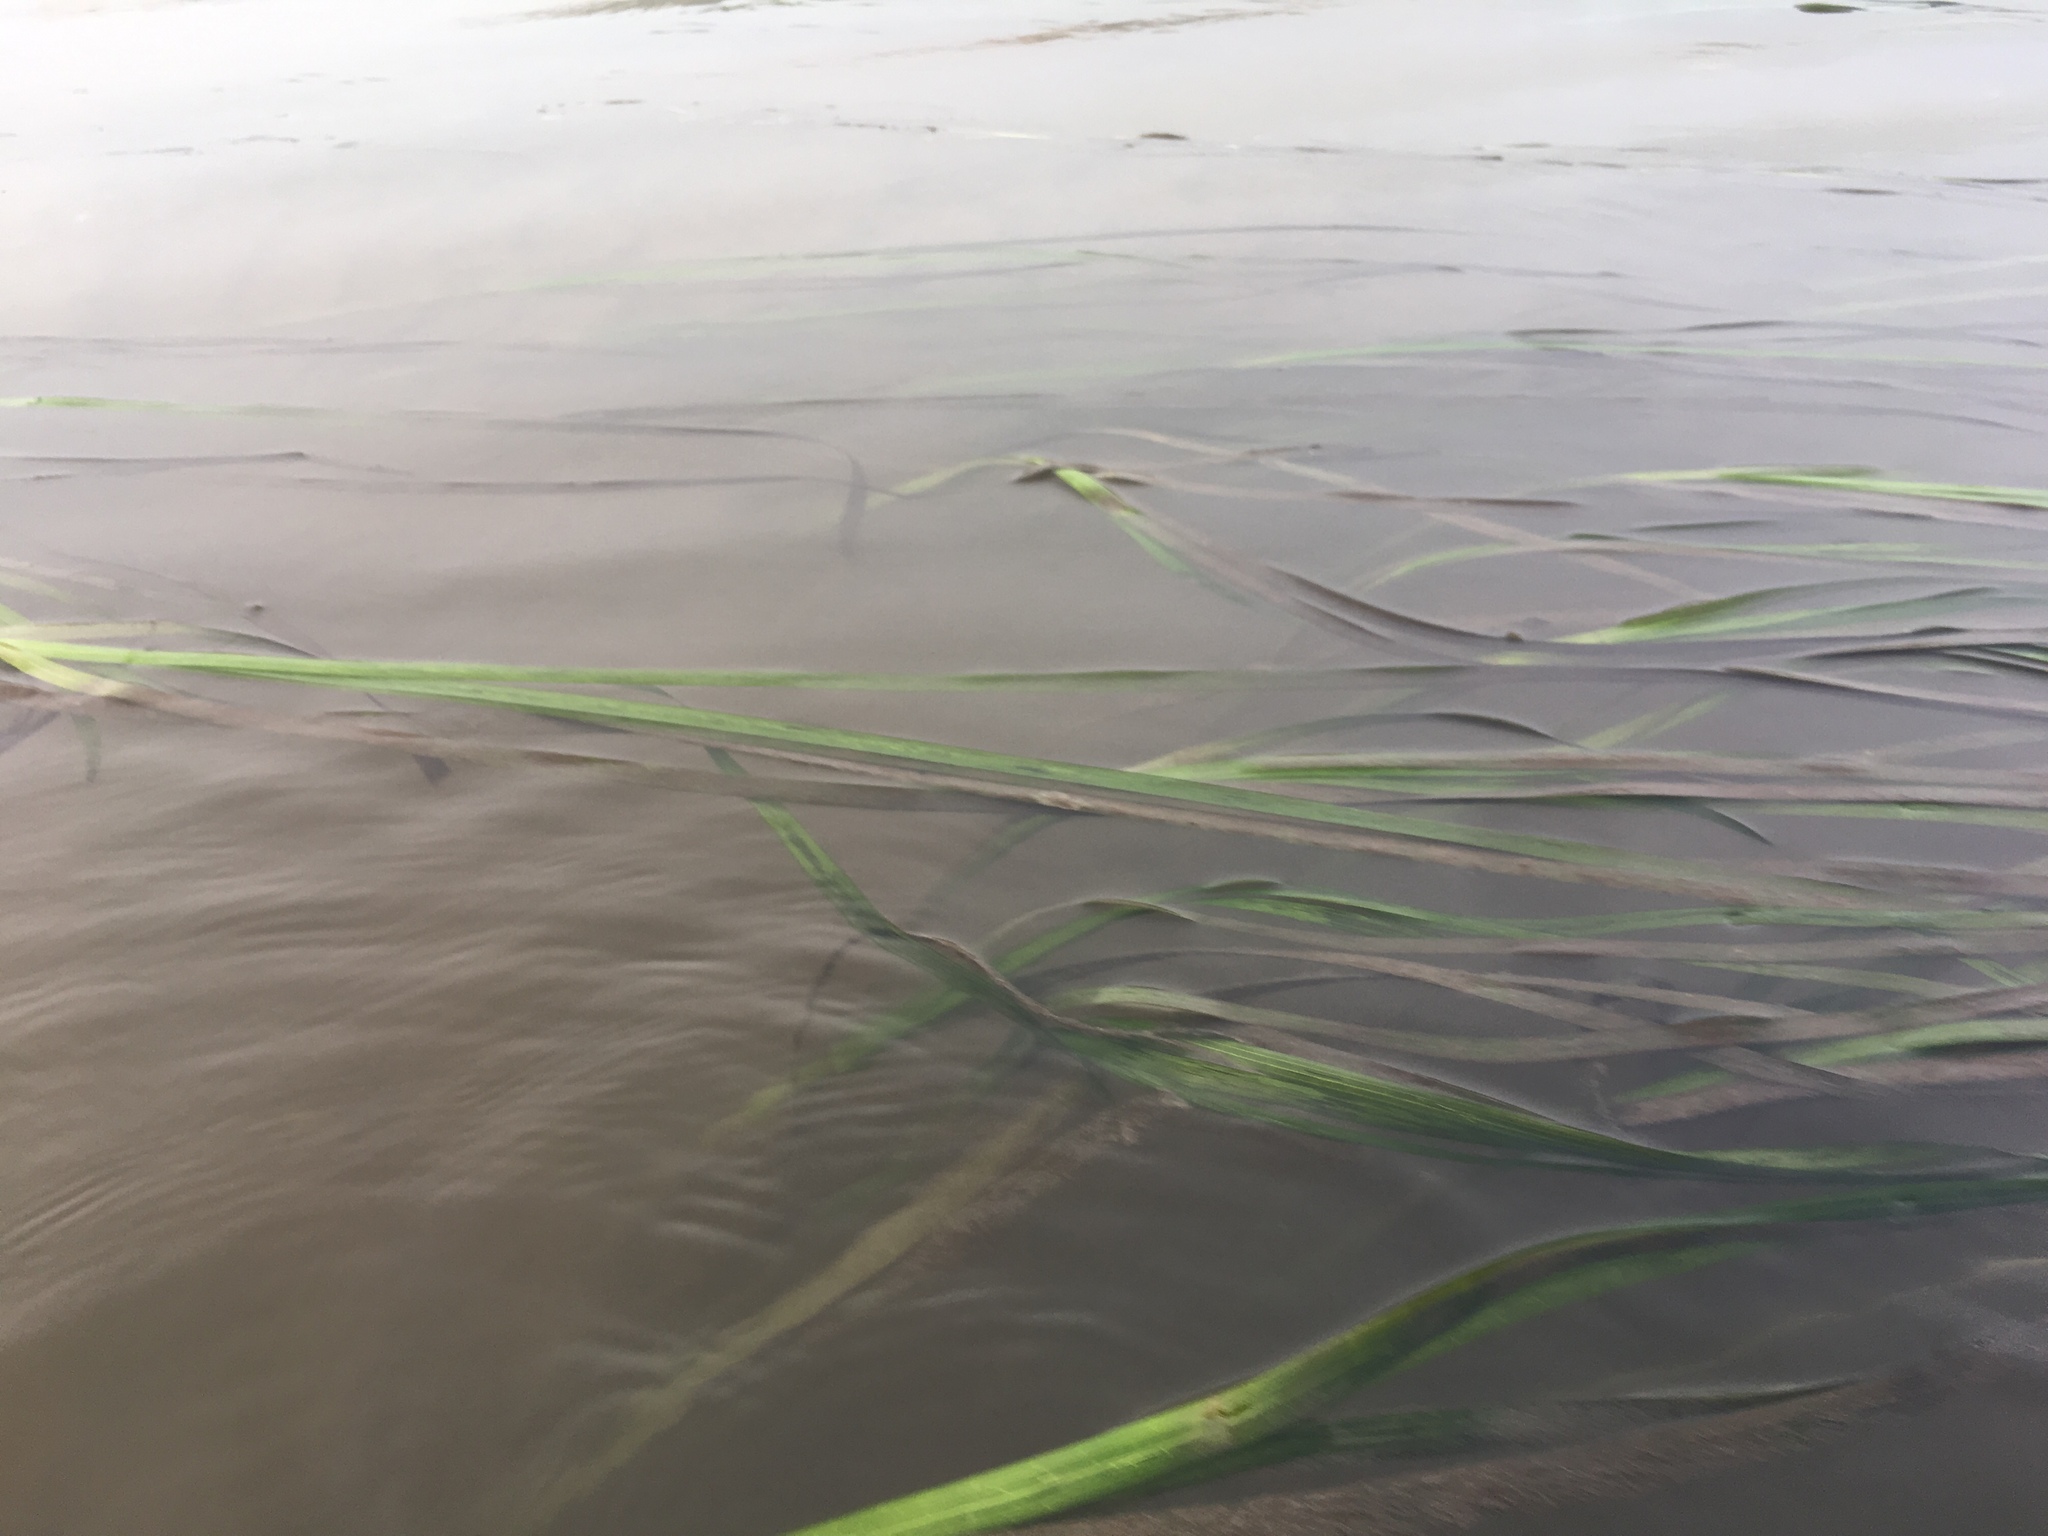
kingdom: Plantae
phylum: Tracheophyta
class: Liliopsida
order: Alismatales
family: Zosteraceae
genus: Zostera
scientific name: Zostera marina
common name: Eelgrass
